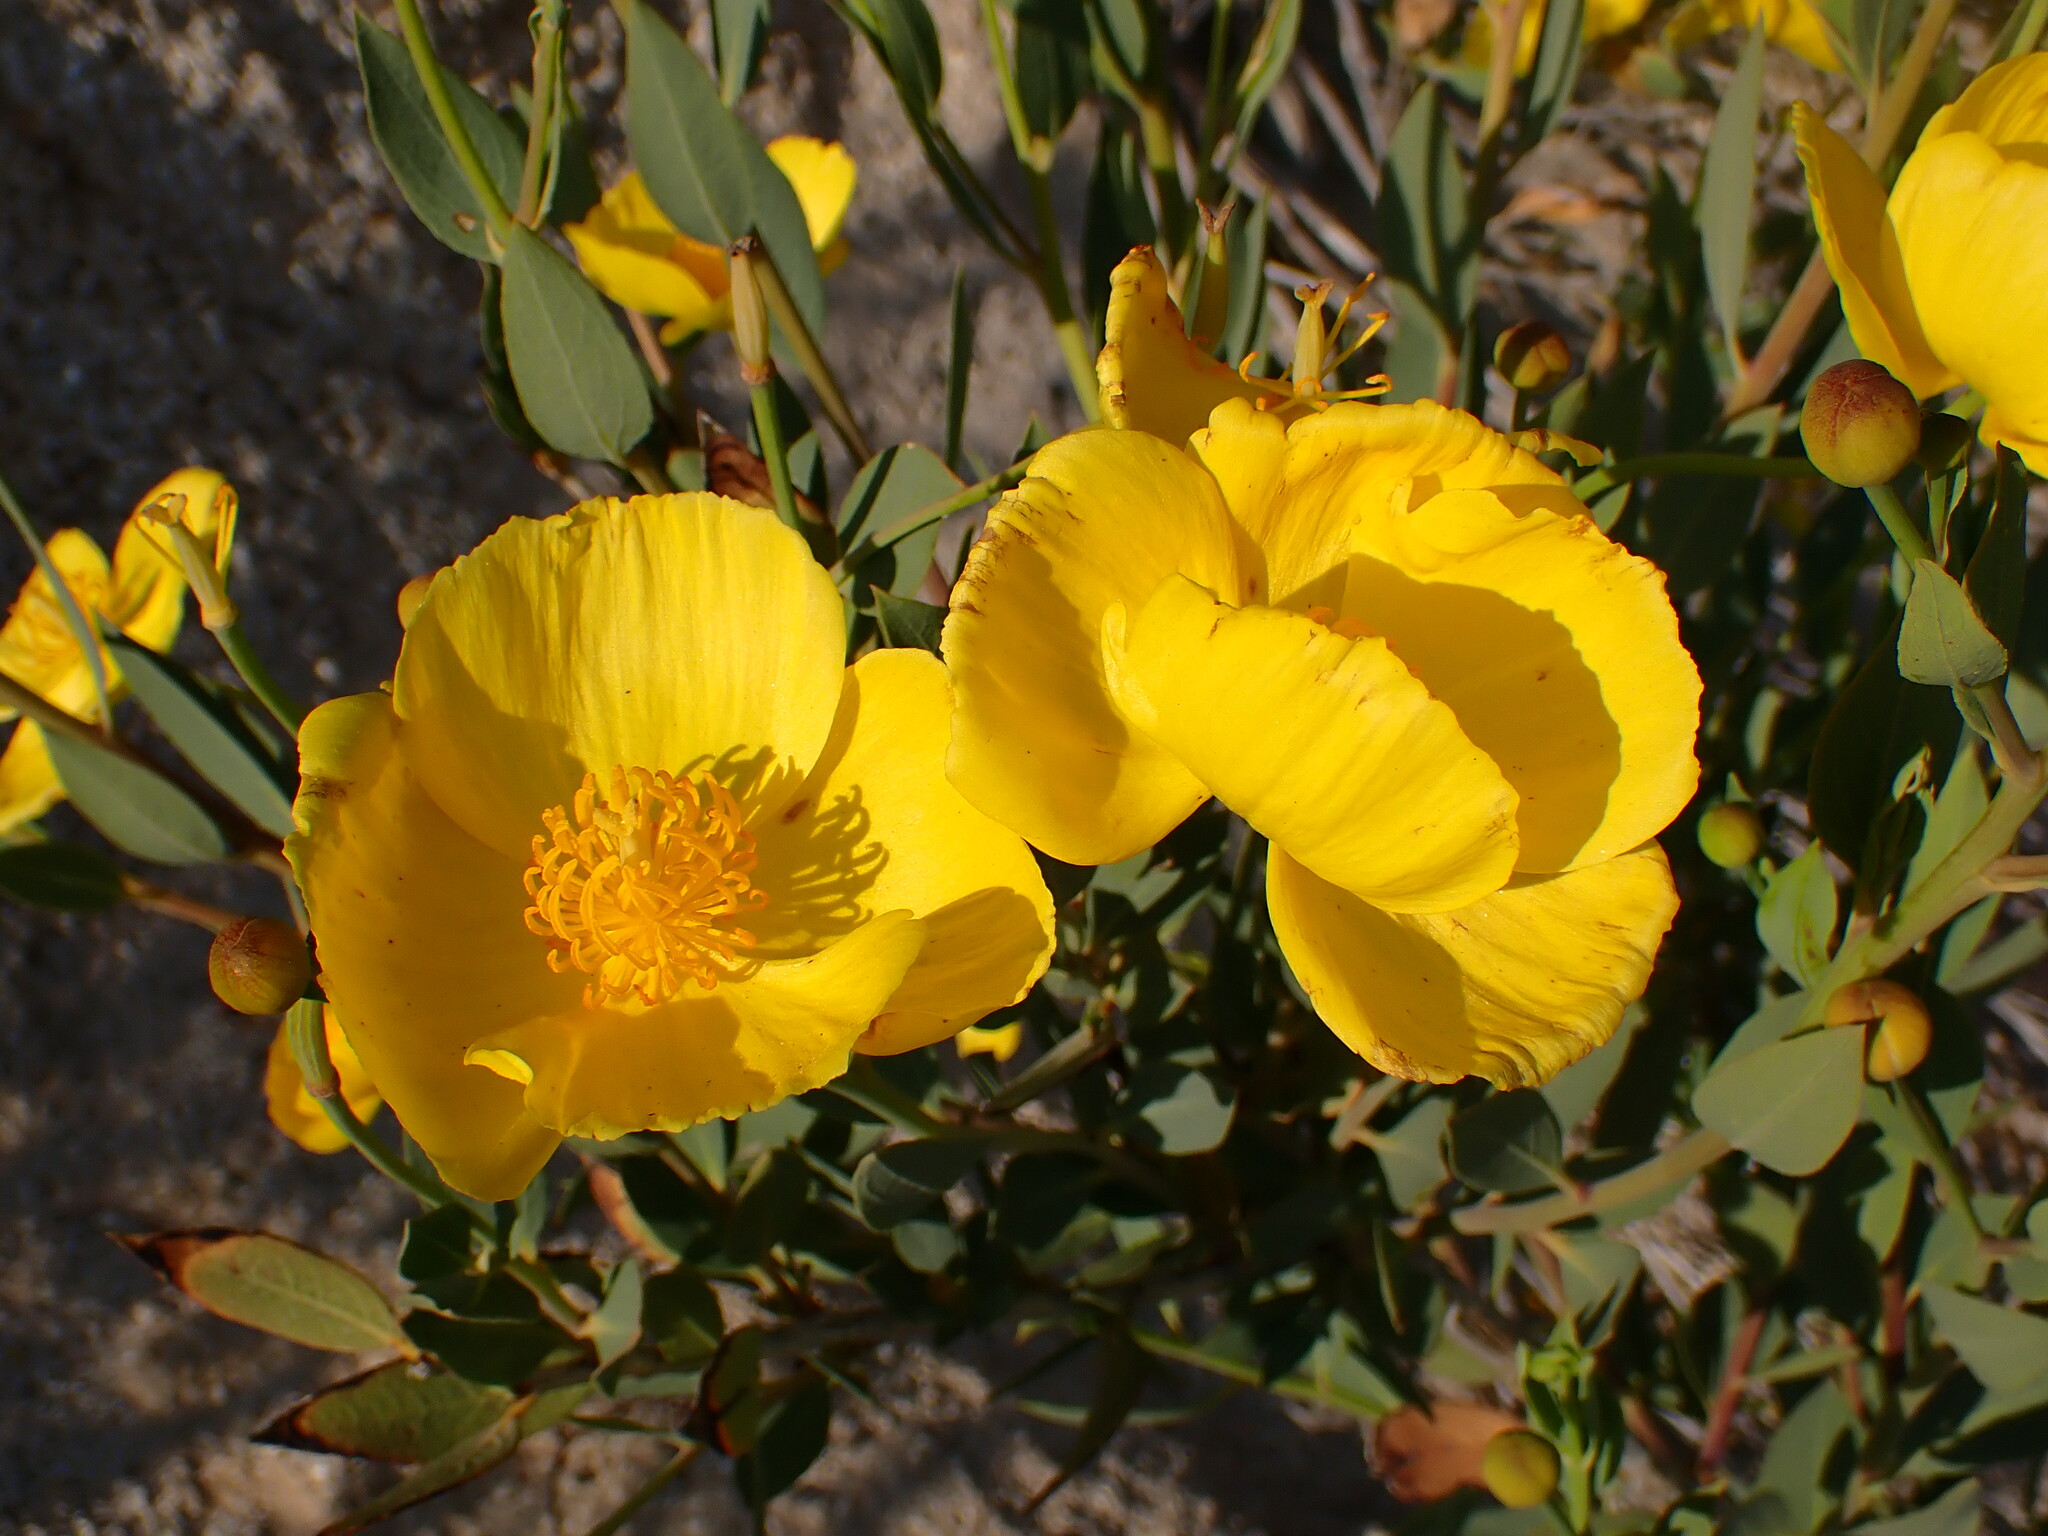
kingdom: Plantae
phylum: Tracheophyta
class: Magnoliopsida
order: Ranunculales
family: Papaveraceae
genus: Dendromecon
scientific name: Dendromecon rigida
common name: Tree poppy
